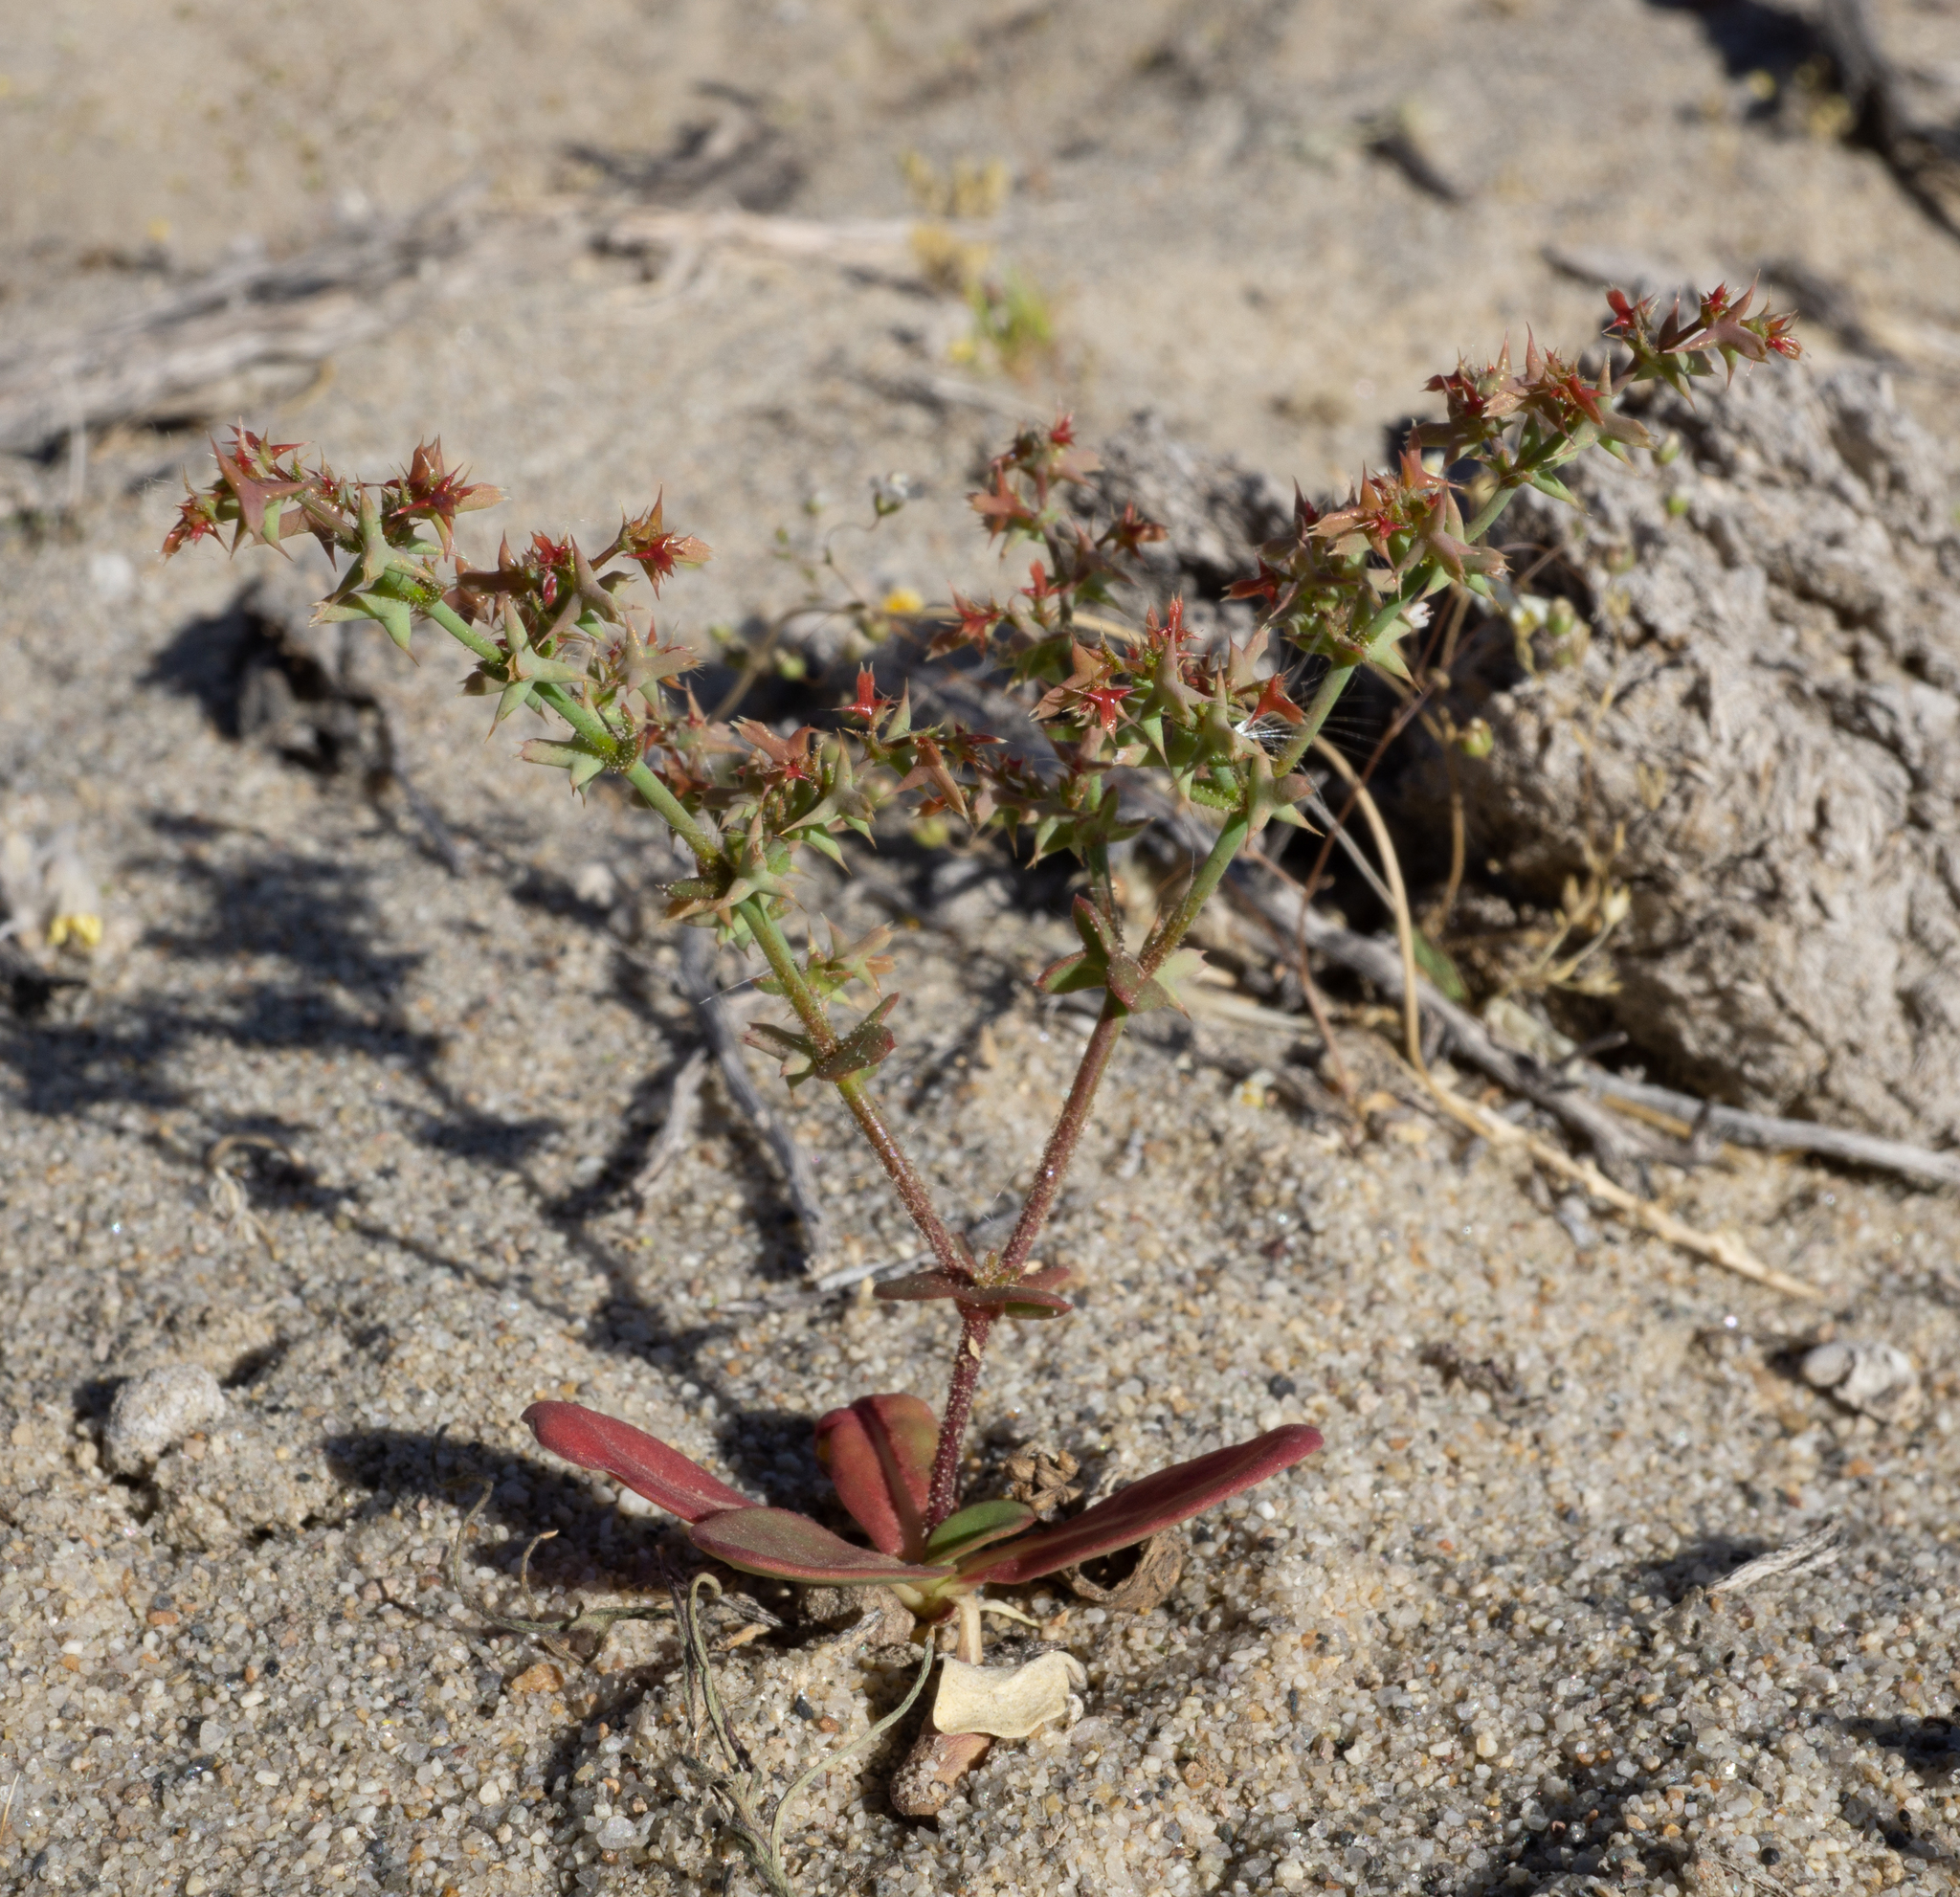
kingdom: Plantae
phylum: Tracheophyta
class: Magnoliopsida
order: Caryophyllales
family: Polygonaceae
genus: Centrostegia
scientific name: Centrostegia thurberi
